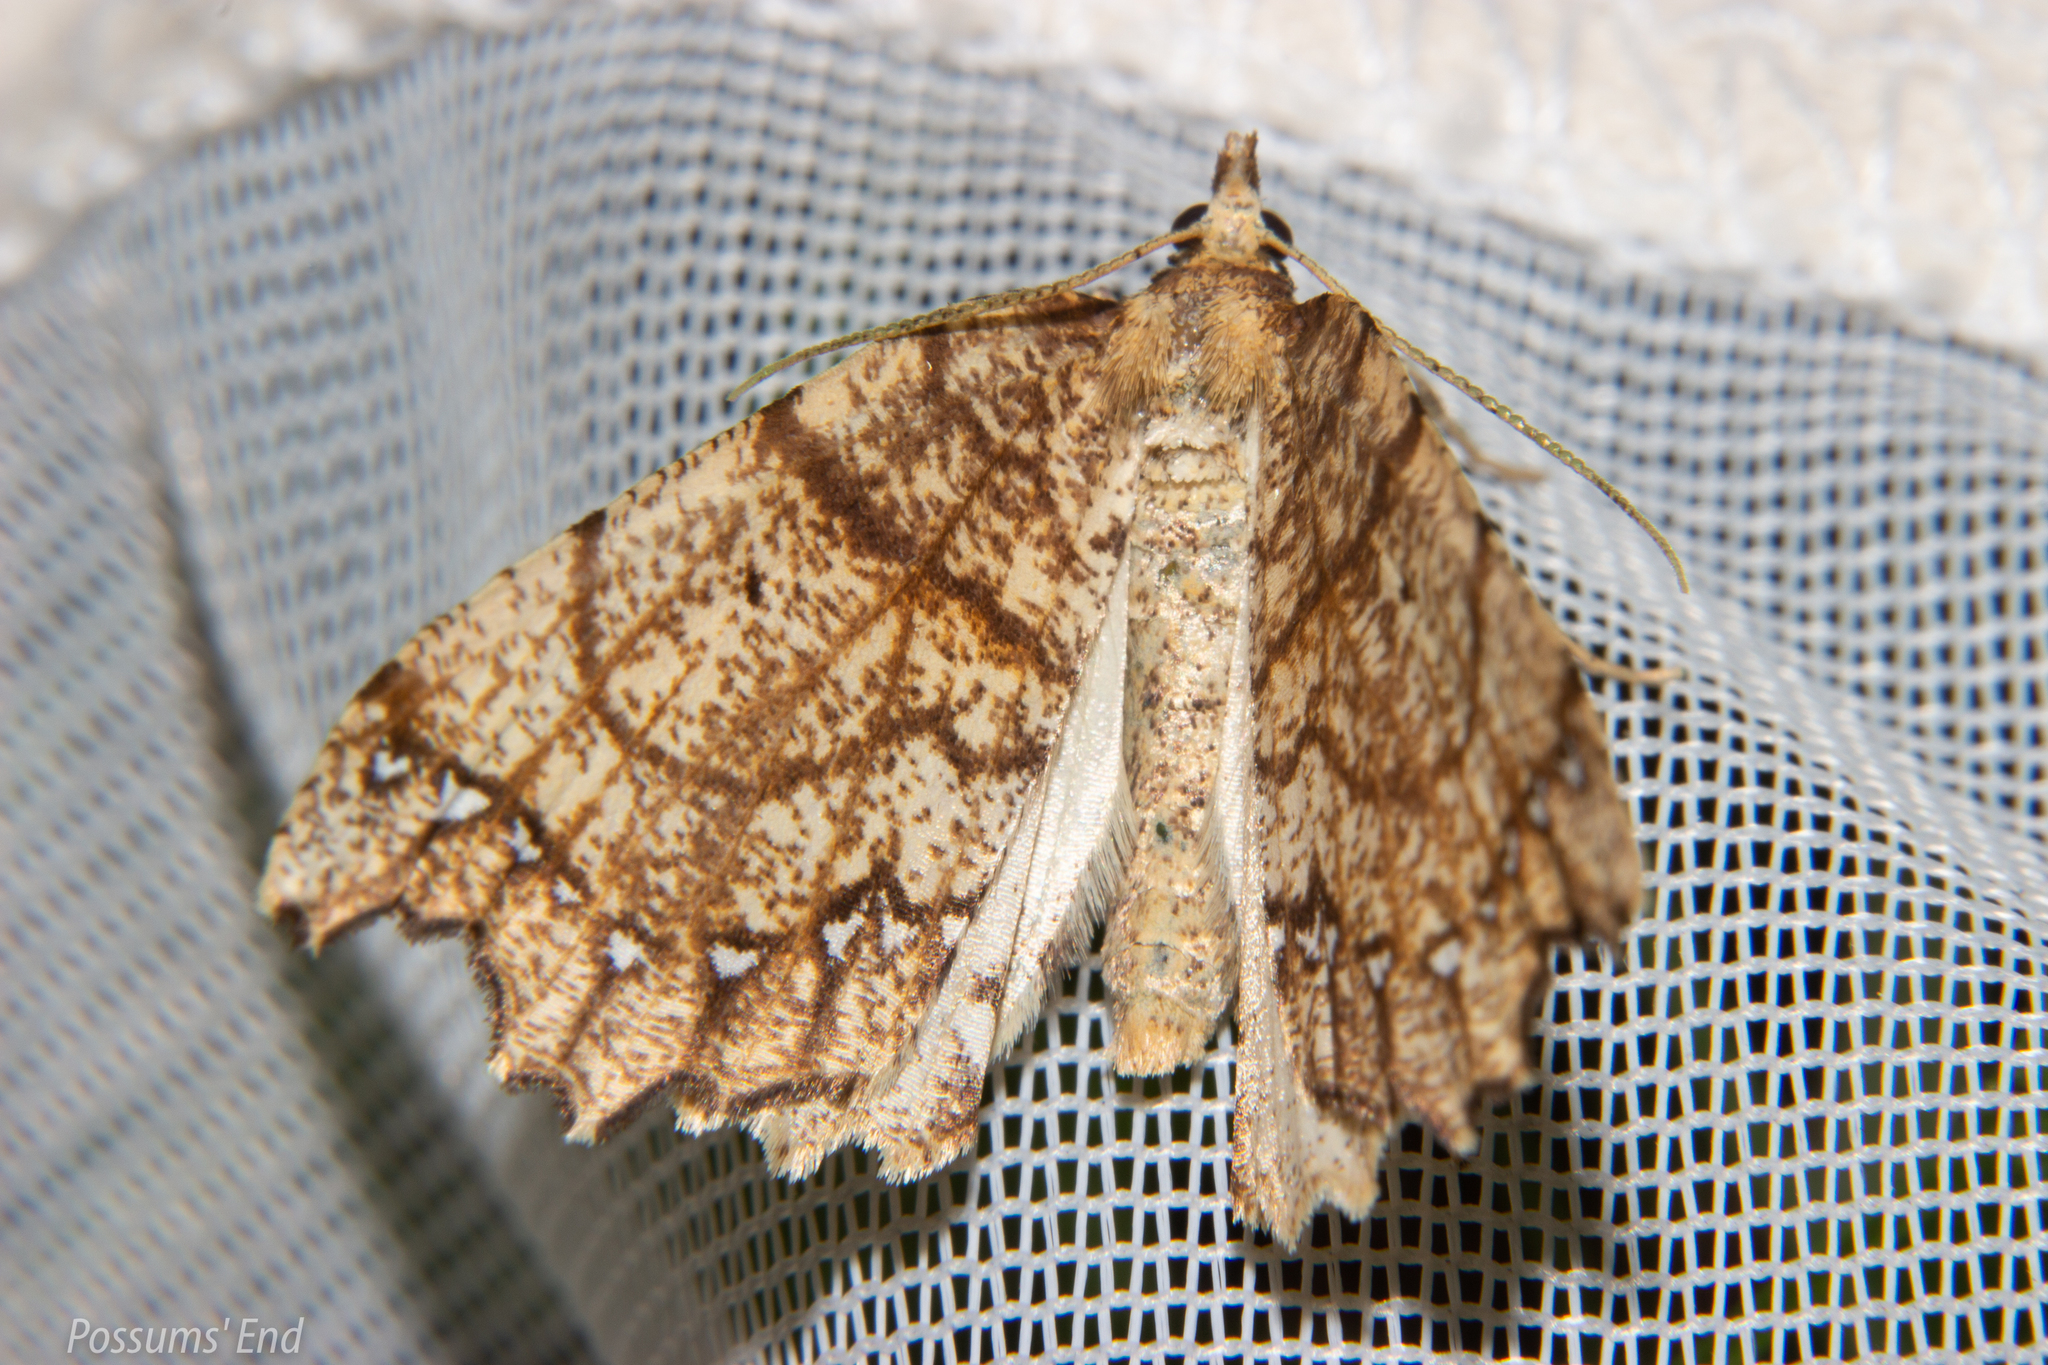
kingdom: Animalia
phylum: Arthropoda
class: Insecta
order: Lepidoptera
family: Geometridae
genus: Chalastra
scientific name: Chalastra pellurgata
